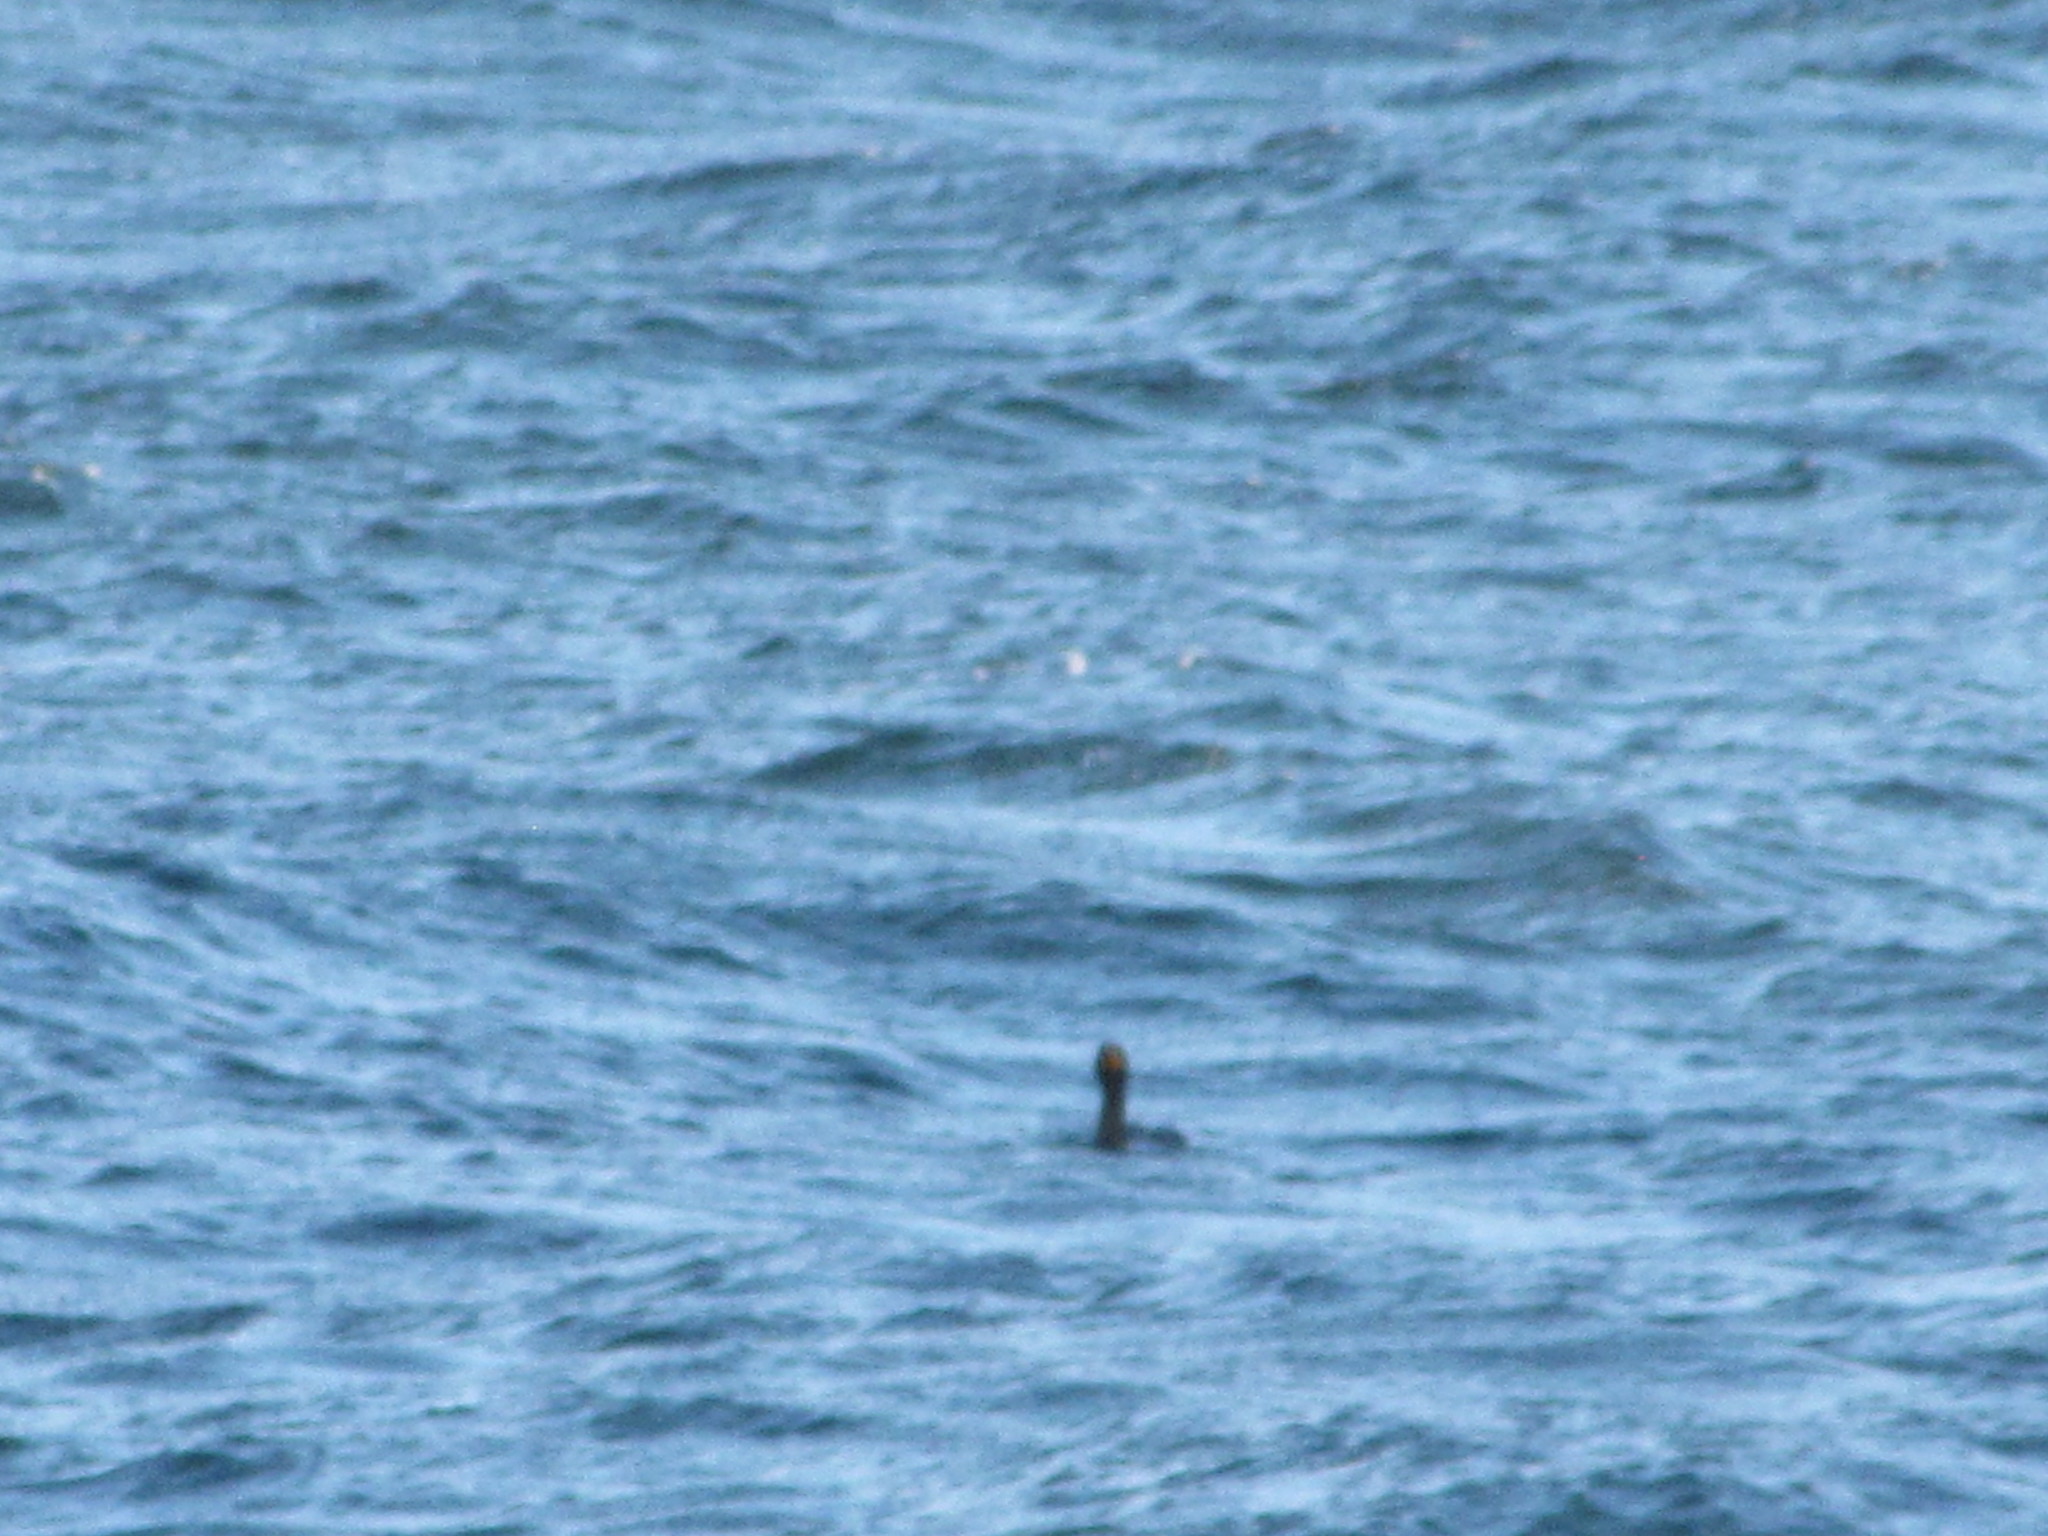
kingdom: Animalia
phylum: Chordata
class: Aves
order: Suliformes
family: Phalacrocoracidae
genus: Phalacrocorax
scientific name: Phalacrocorax auritus
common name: Double-crested cormorant
